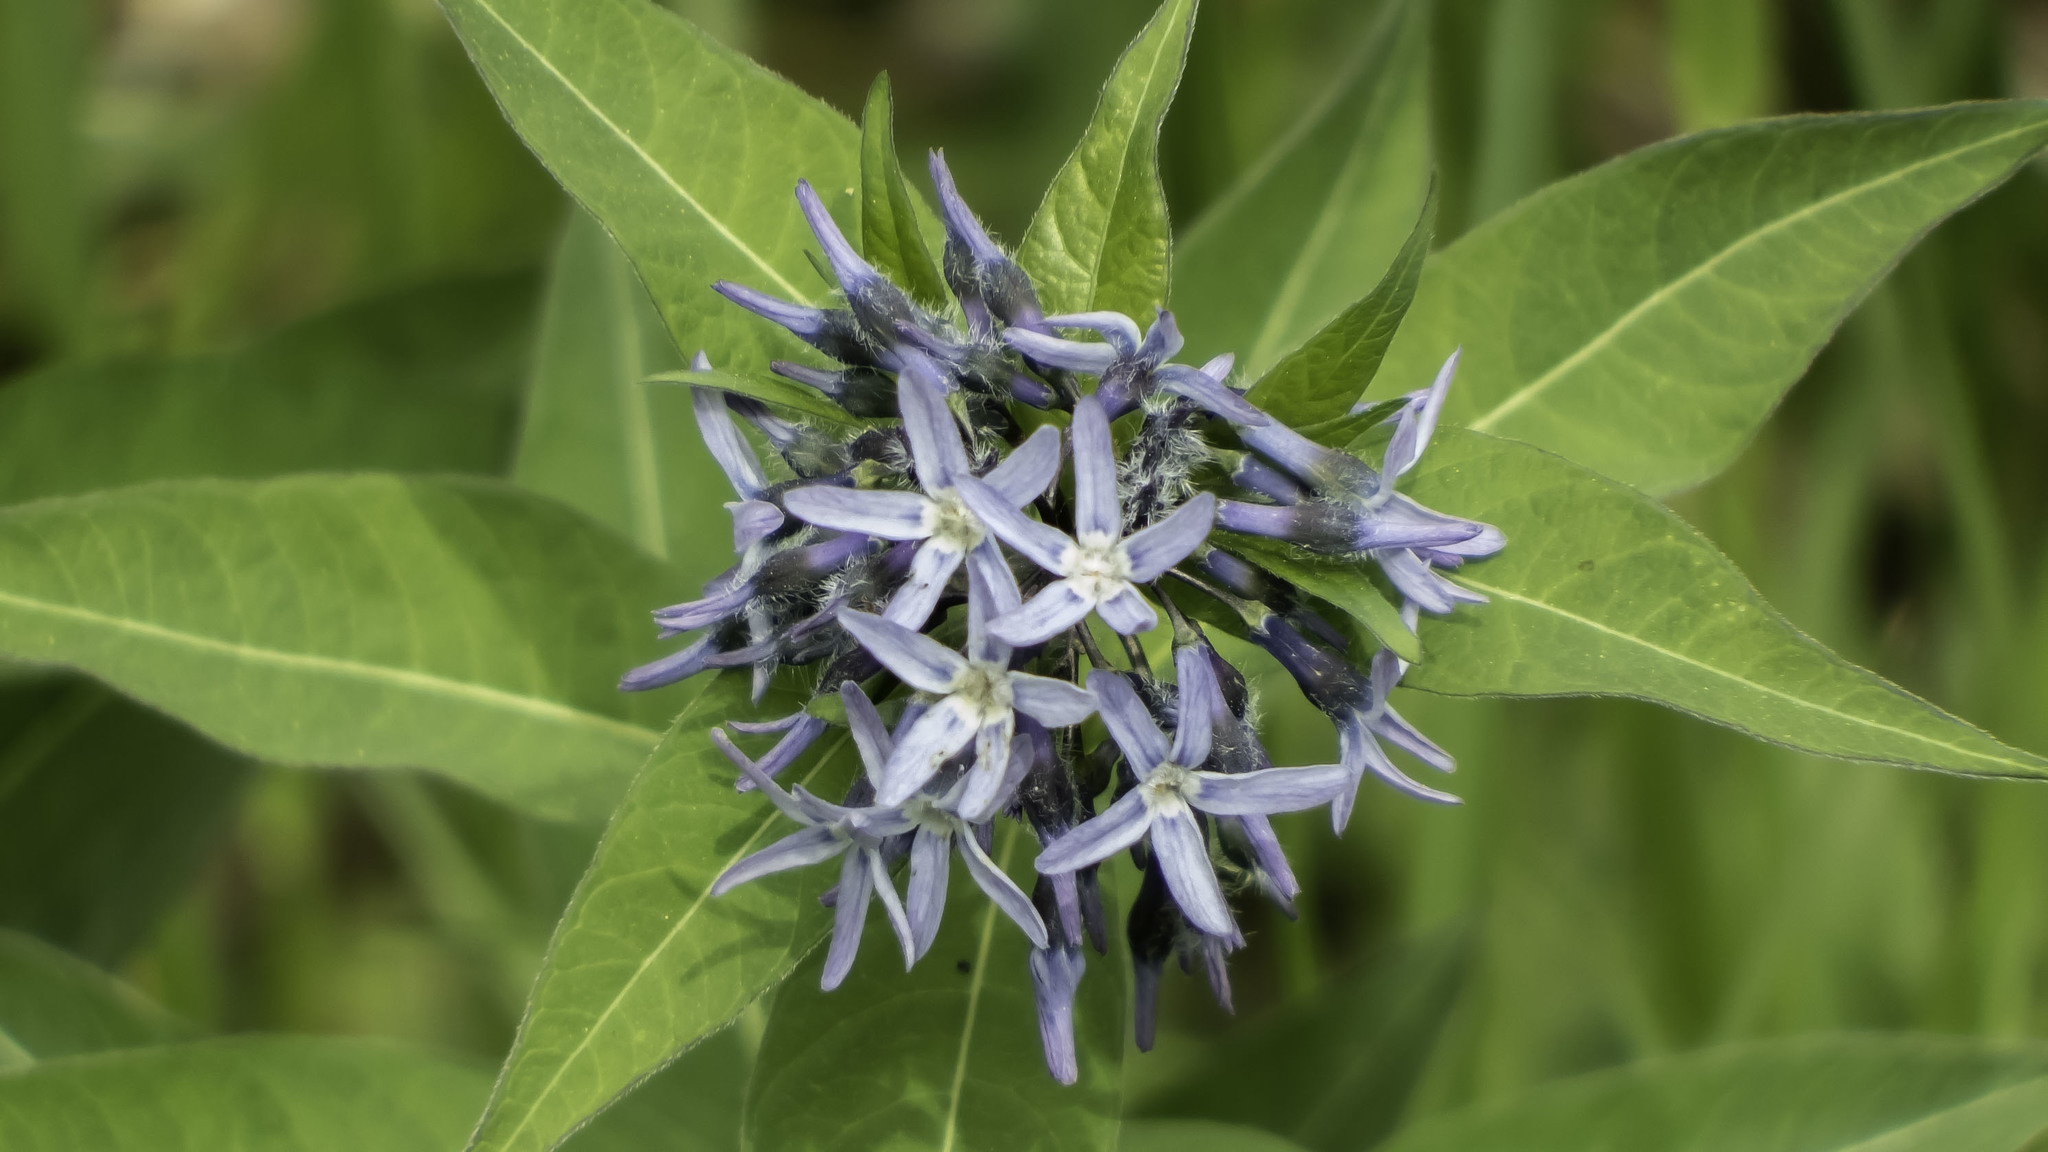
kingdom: Plantae
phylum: Tracheophyta
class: Magnoliopsida
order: Gentianales
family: Apocynaceae
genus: Amsonia
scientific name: Amsonia tabernaemontana
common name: Texas-star
